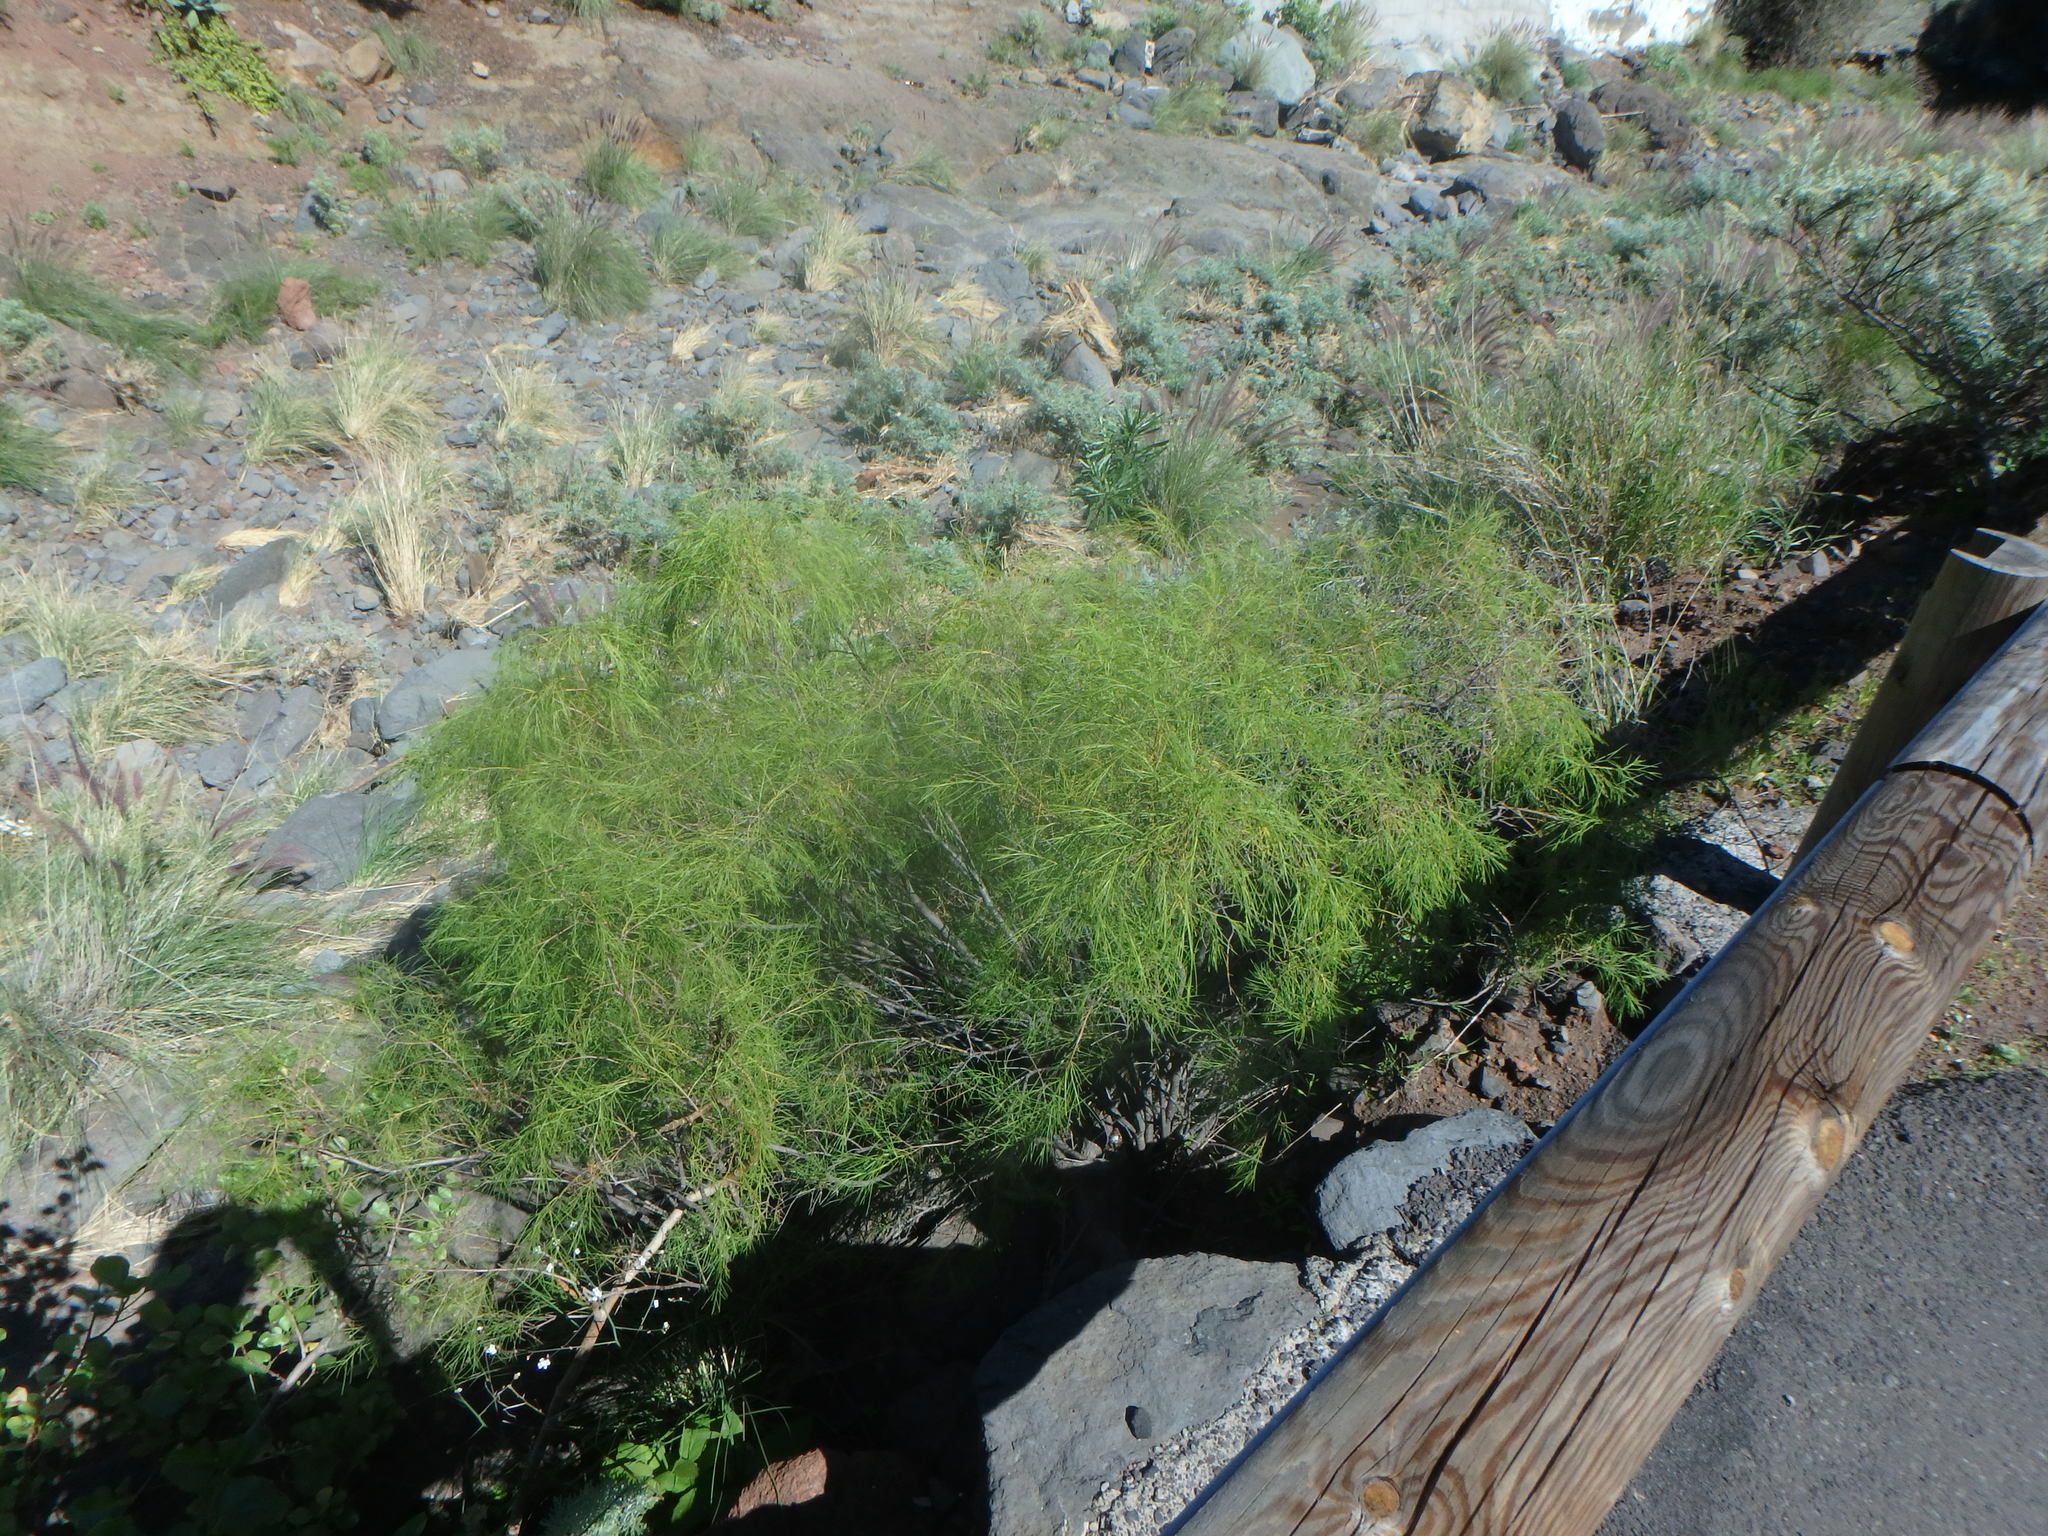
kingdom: Plantae
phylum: Tracheophyta
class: Magnoliopsida
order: Asterales
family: Asteraceae
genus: Sonchus
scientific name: Sonchus leptocephalus
